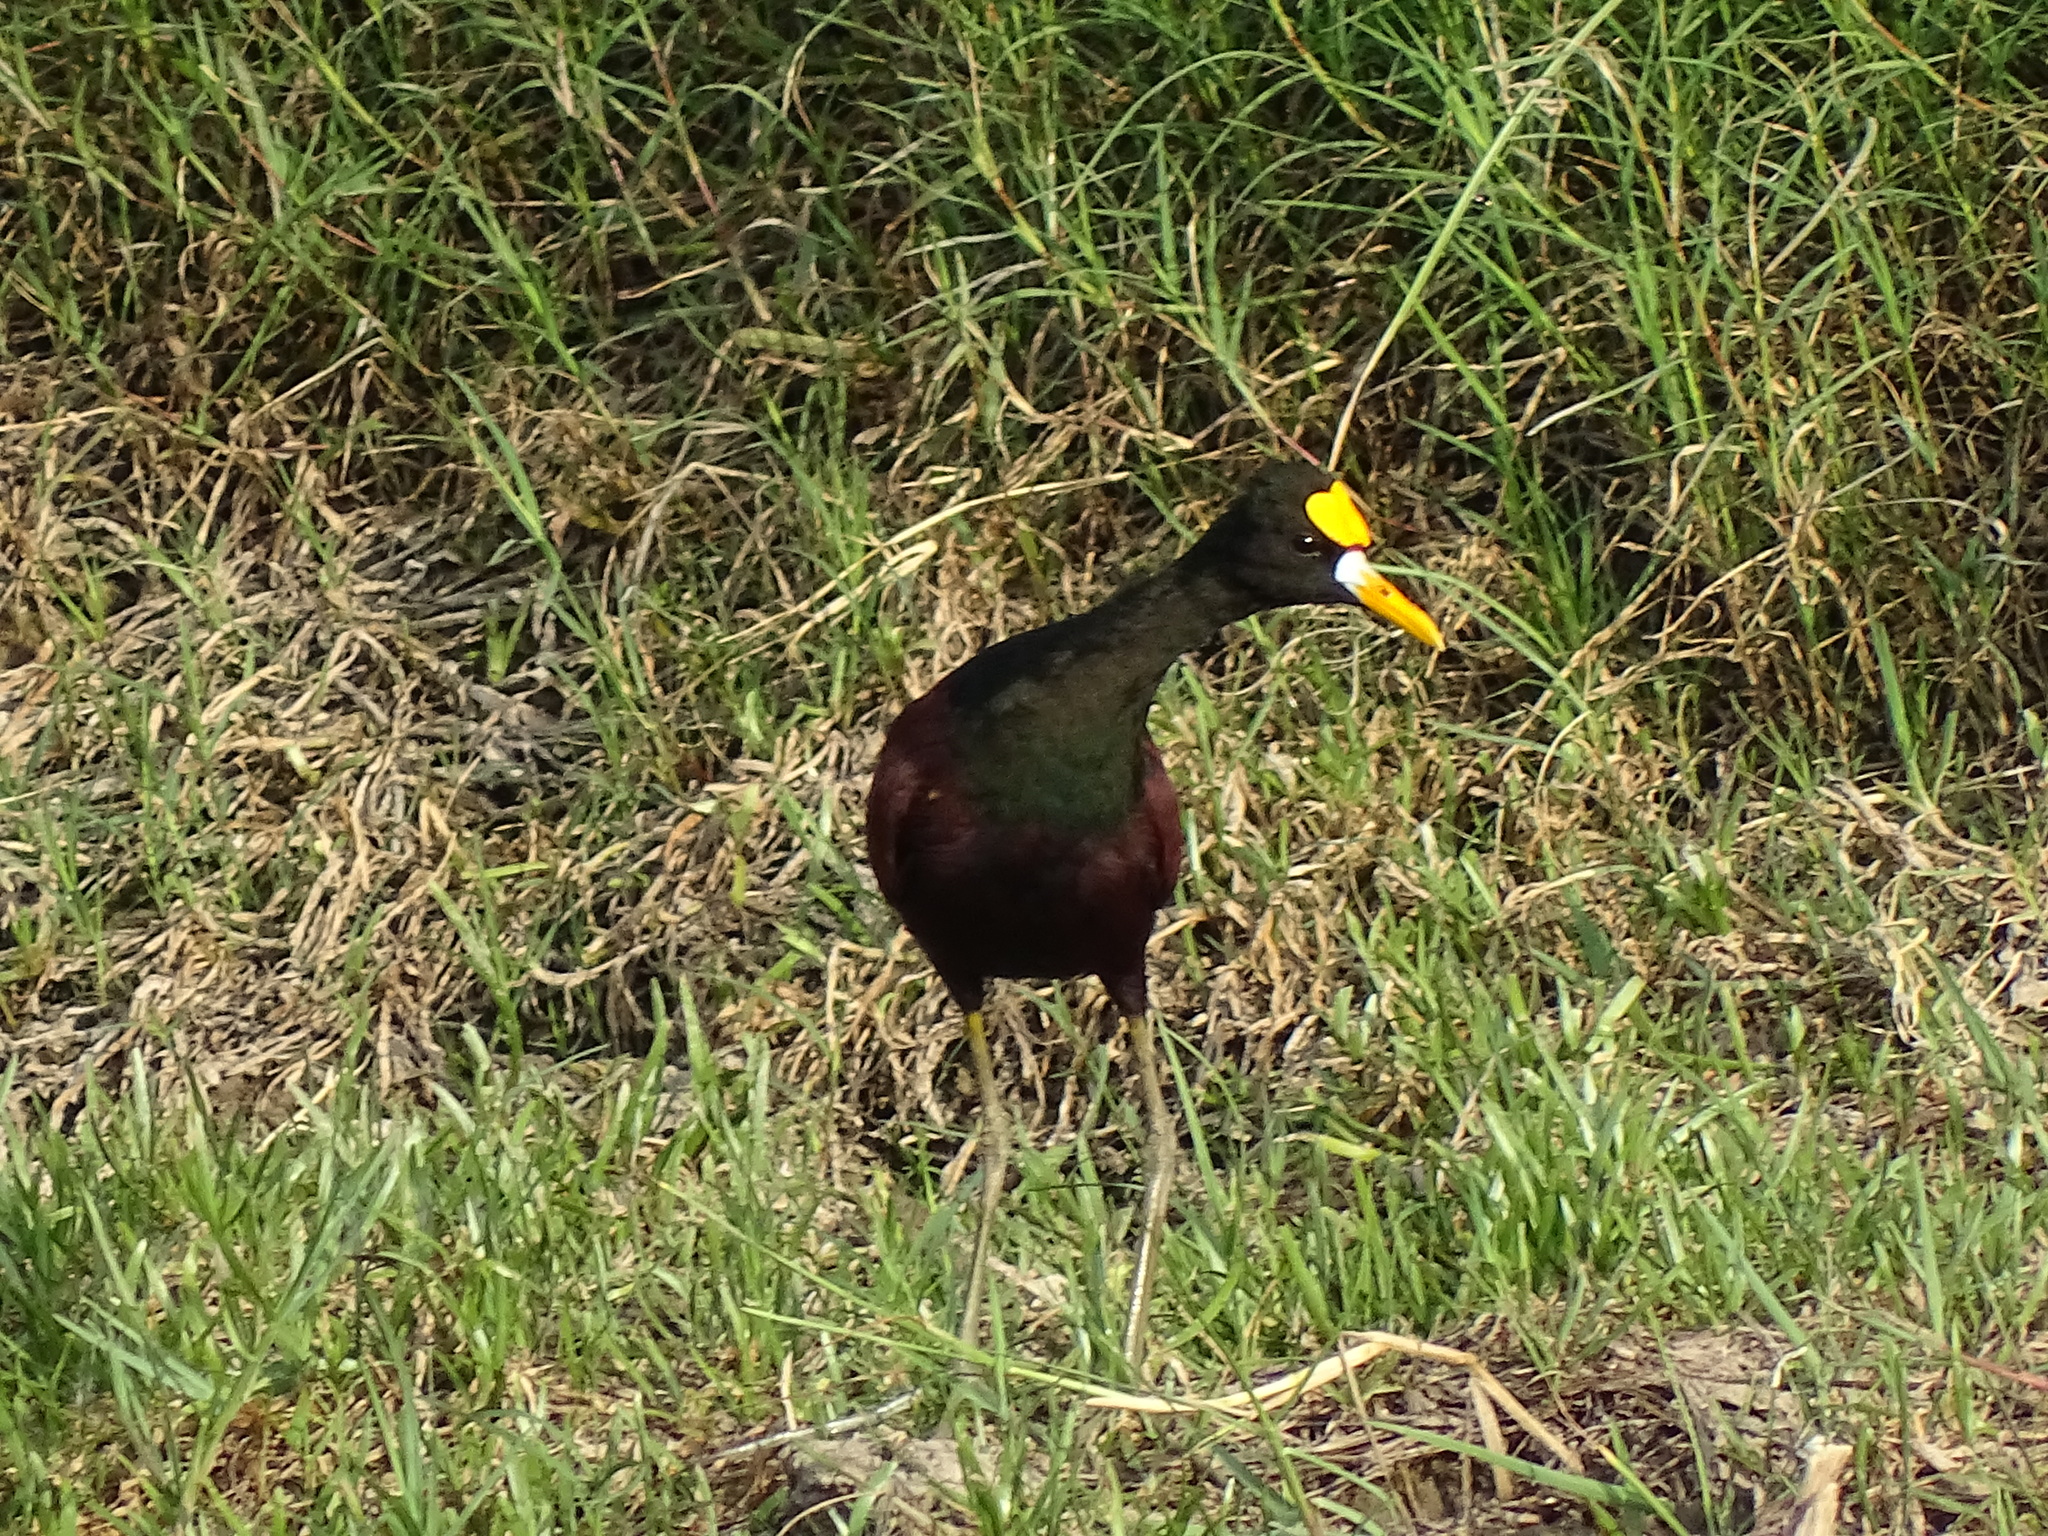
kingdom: Animalia
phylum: Chordata
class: Aves
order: Charadriiformes
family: Jacanidae
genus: Jacana
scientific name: Jacana spinosa
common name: Northern jacana
